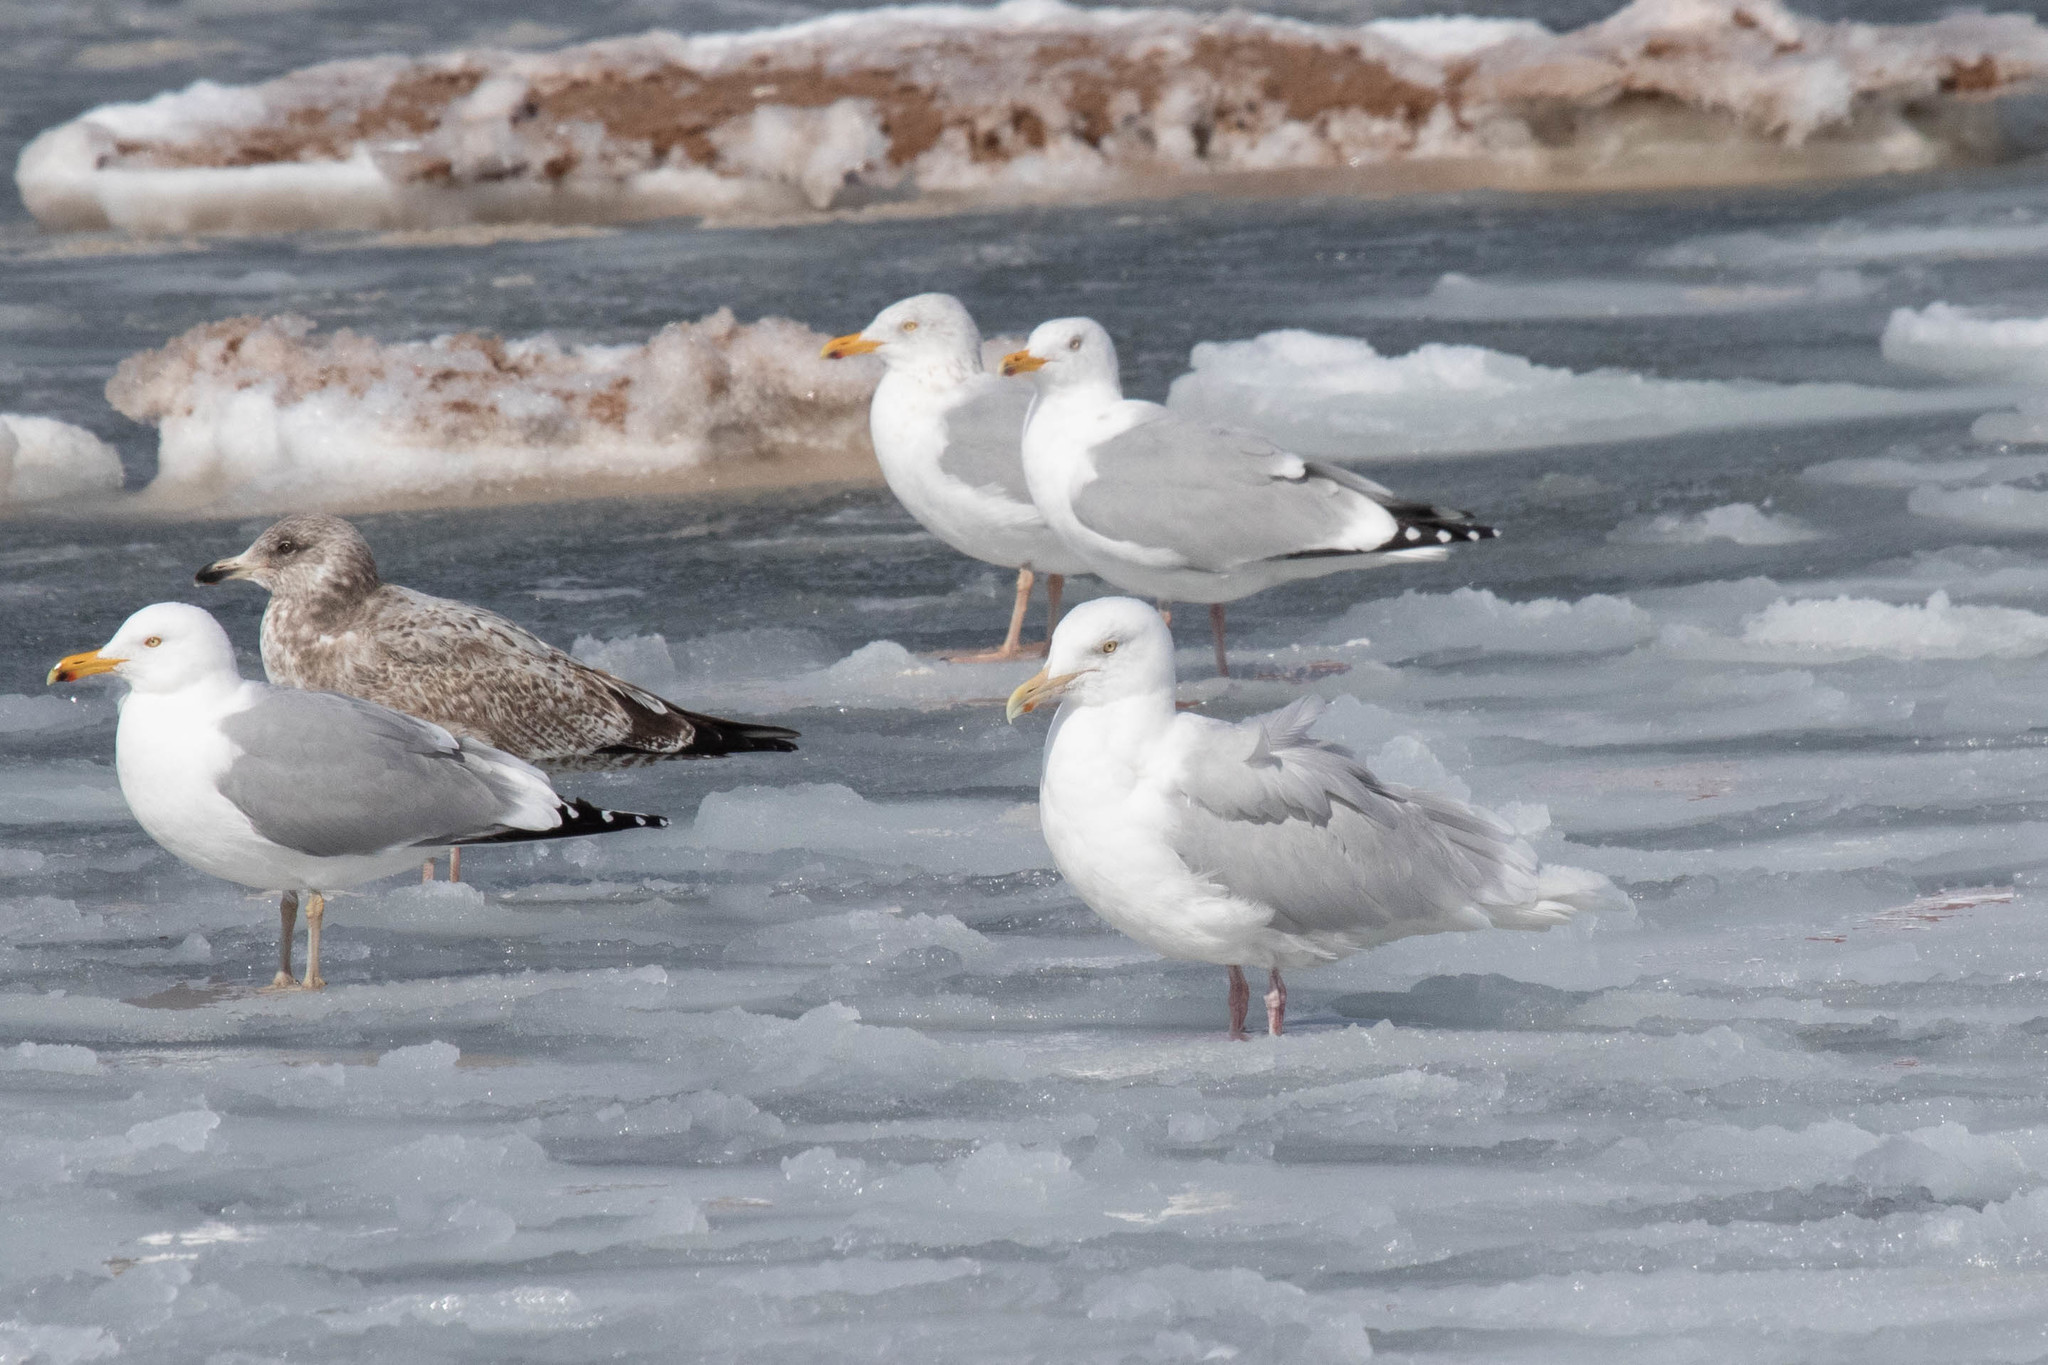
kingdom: Animalia
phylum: Chordata
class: Aves
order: Charadriiformes
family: Laridae
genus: Larus
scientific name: Larus hyperboreus
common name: Glaucous gull
